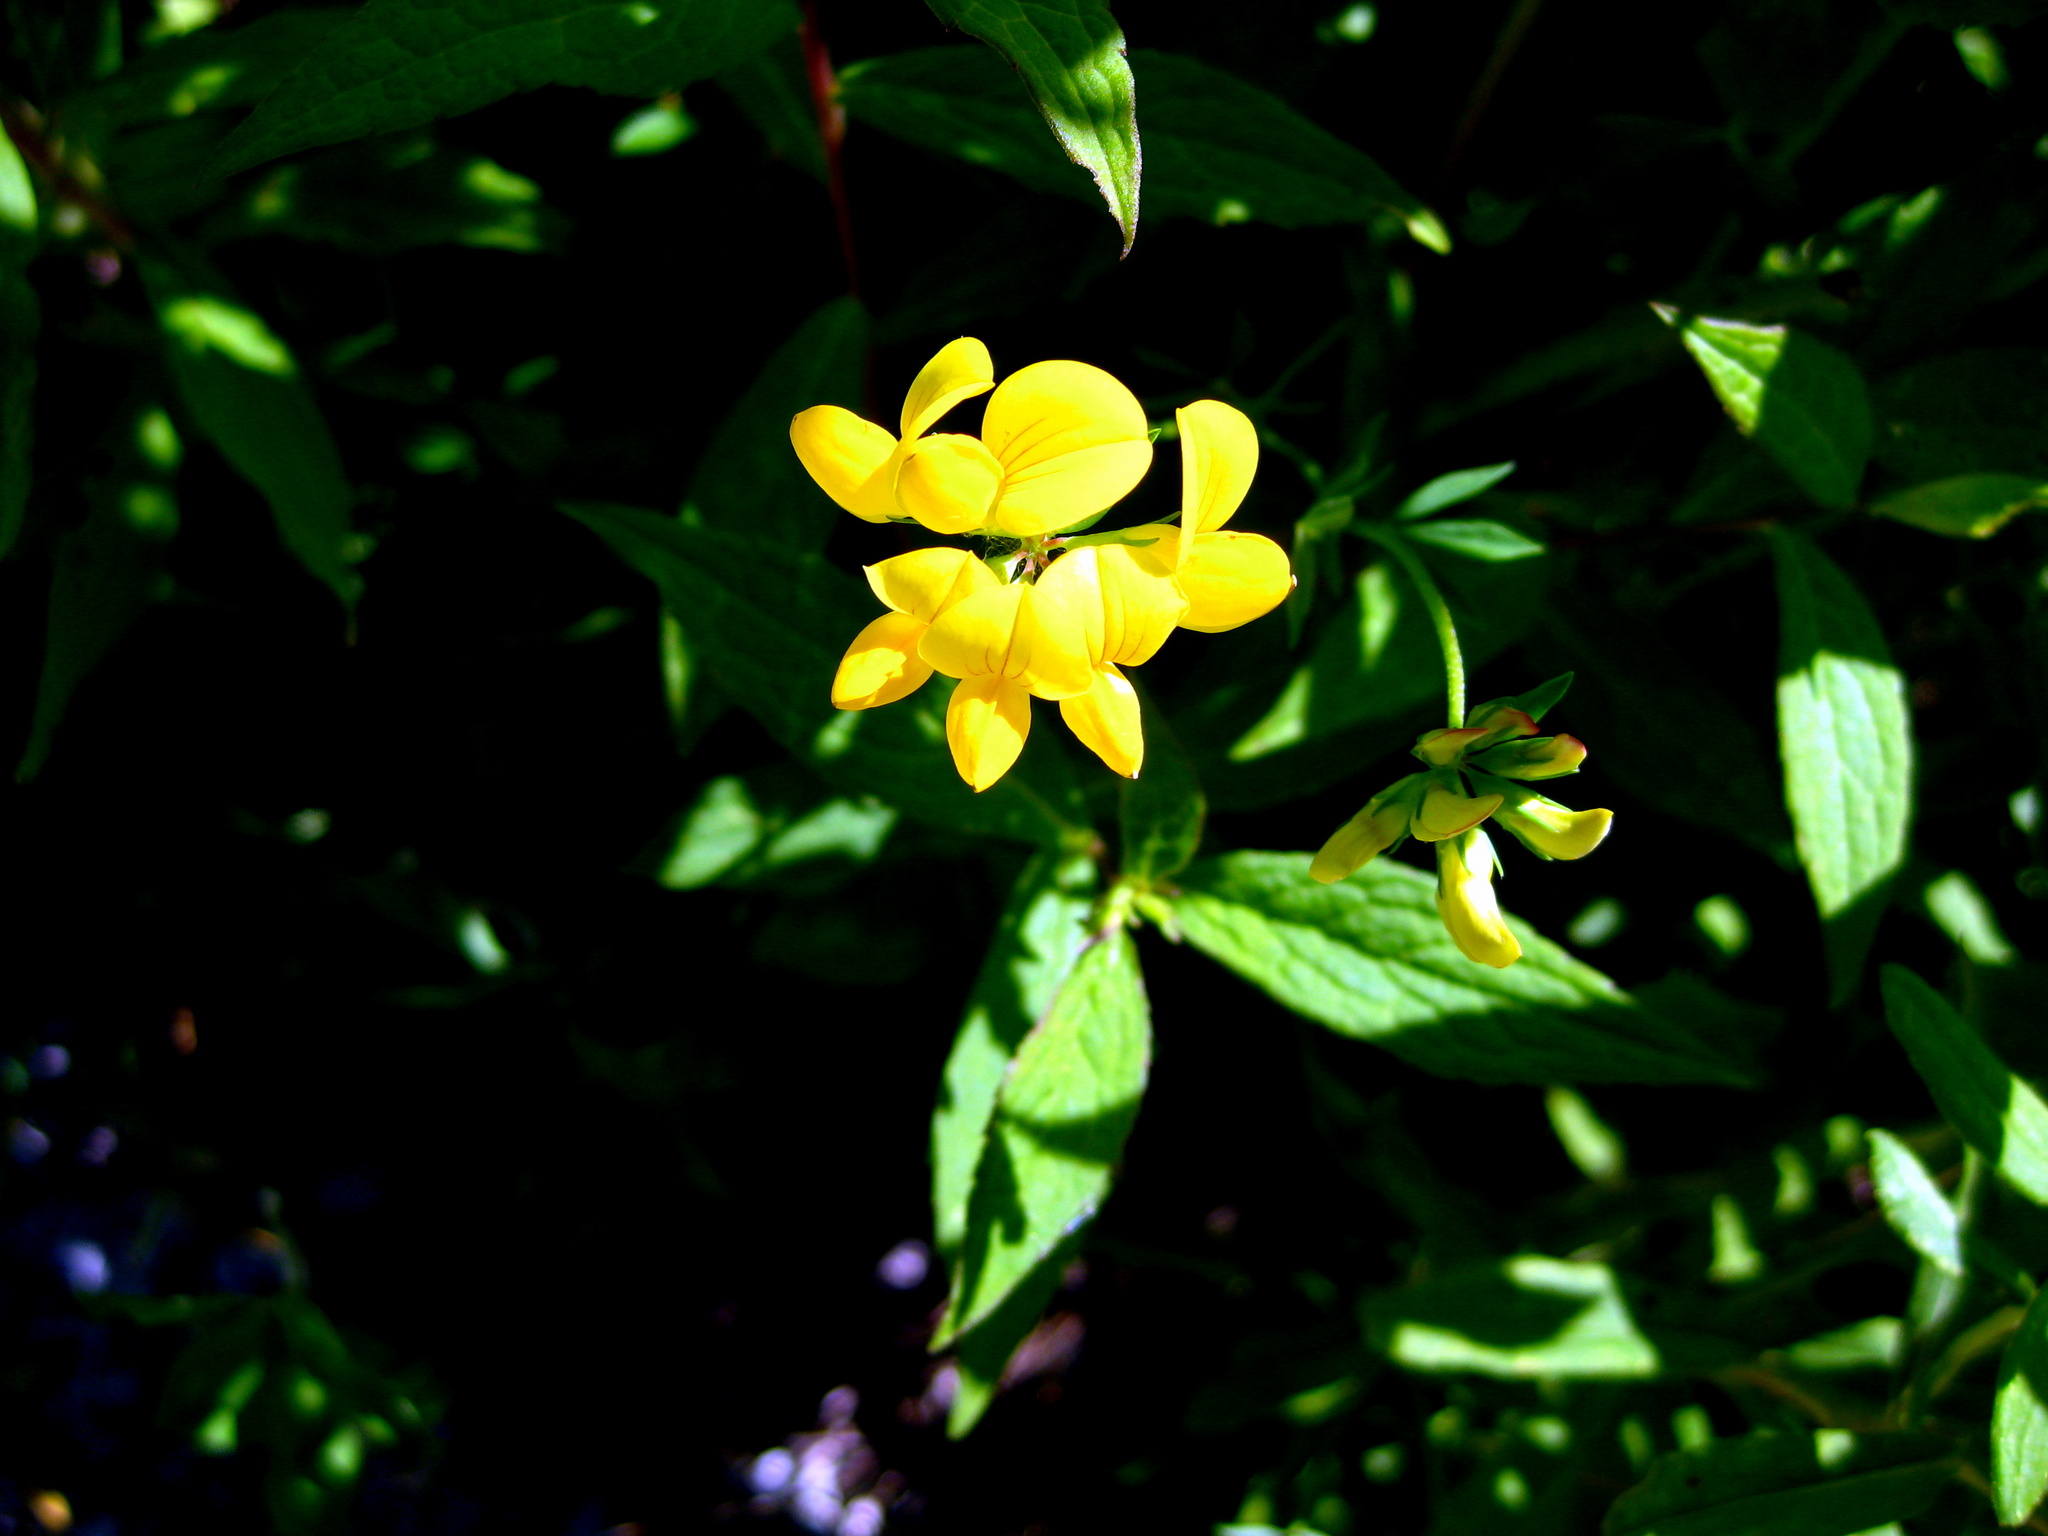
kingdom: Plantae
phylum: Tracheophyta
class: Magnoliopsida
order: Fabales
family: Fabaceae
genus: Lotus
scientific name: Lotus corniculatus
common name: Common bird's-foot-trefoil
